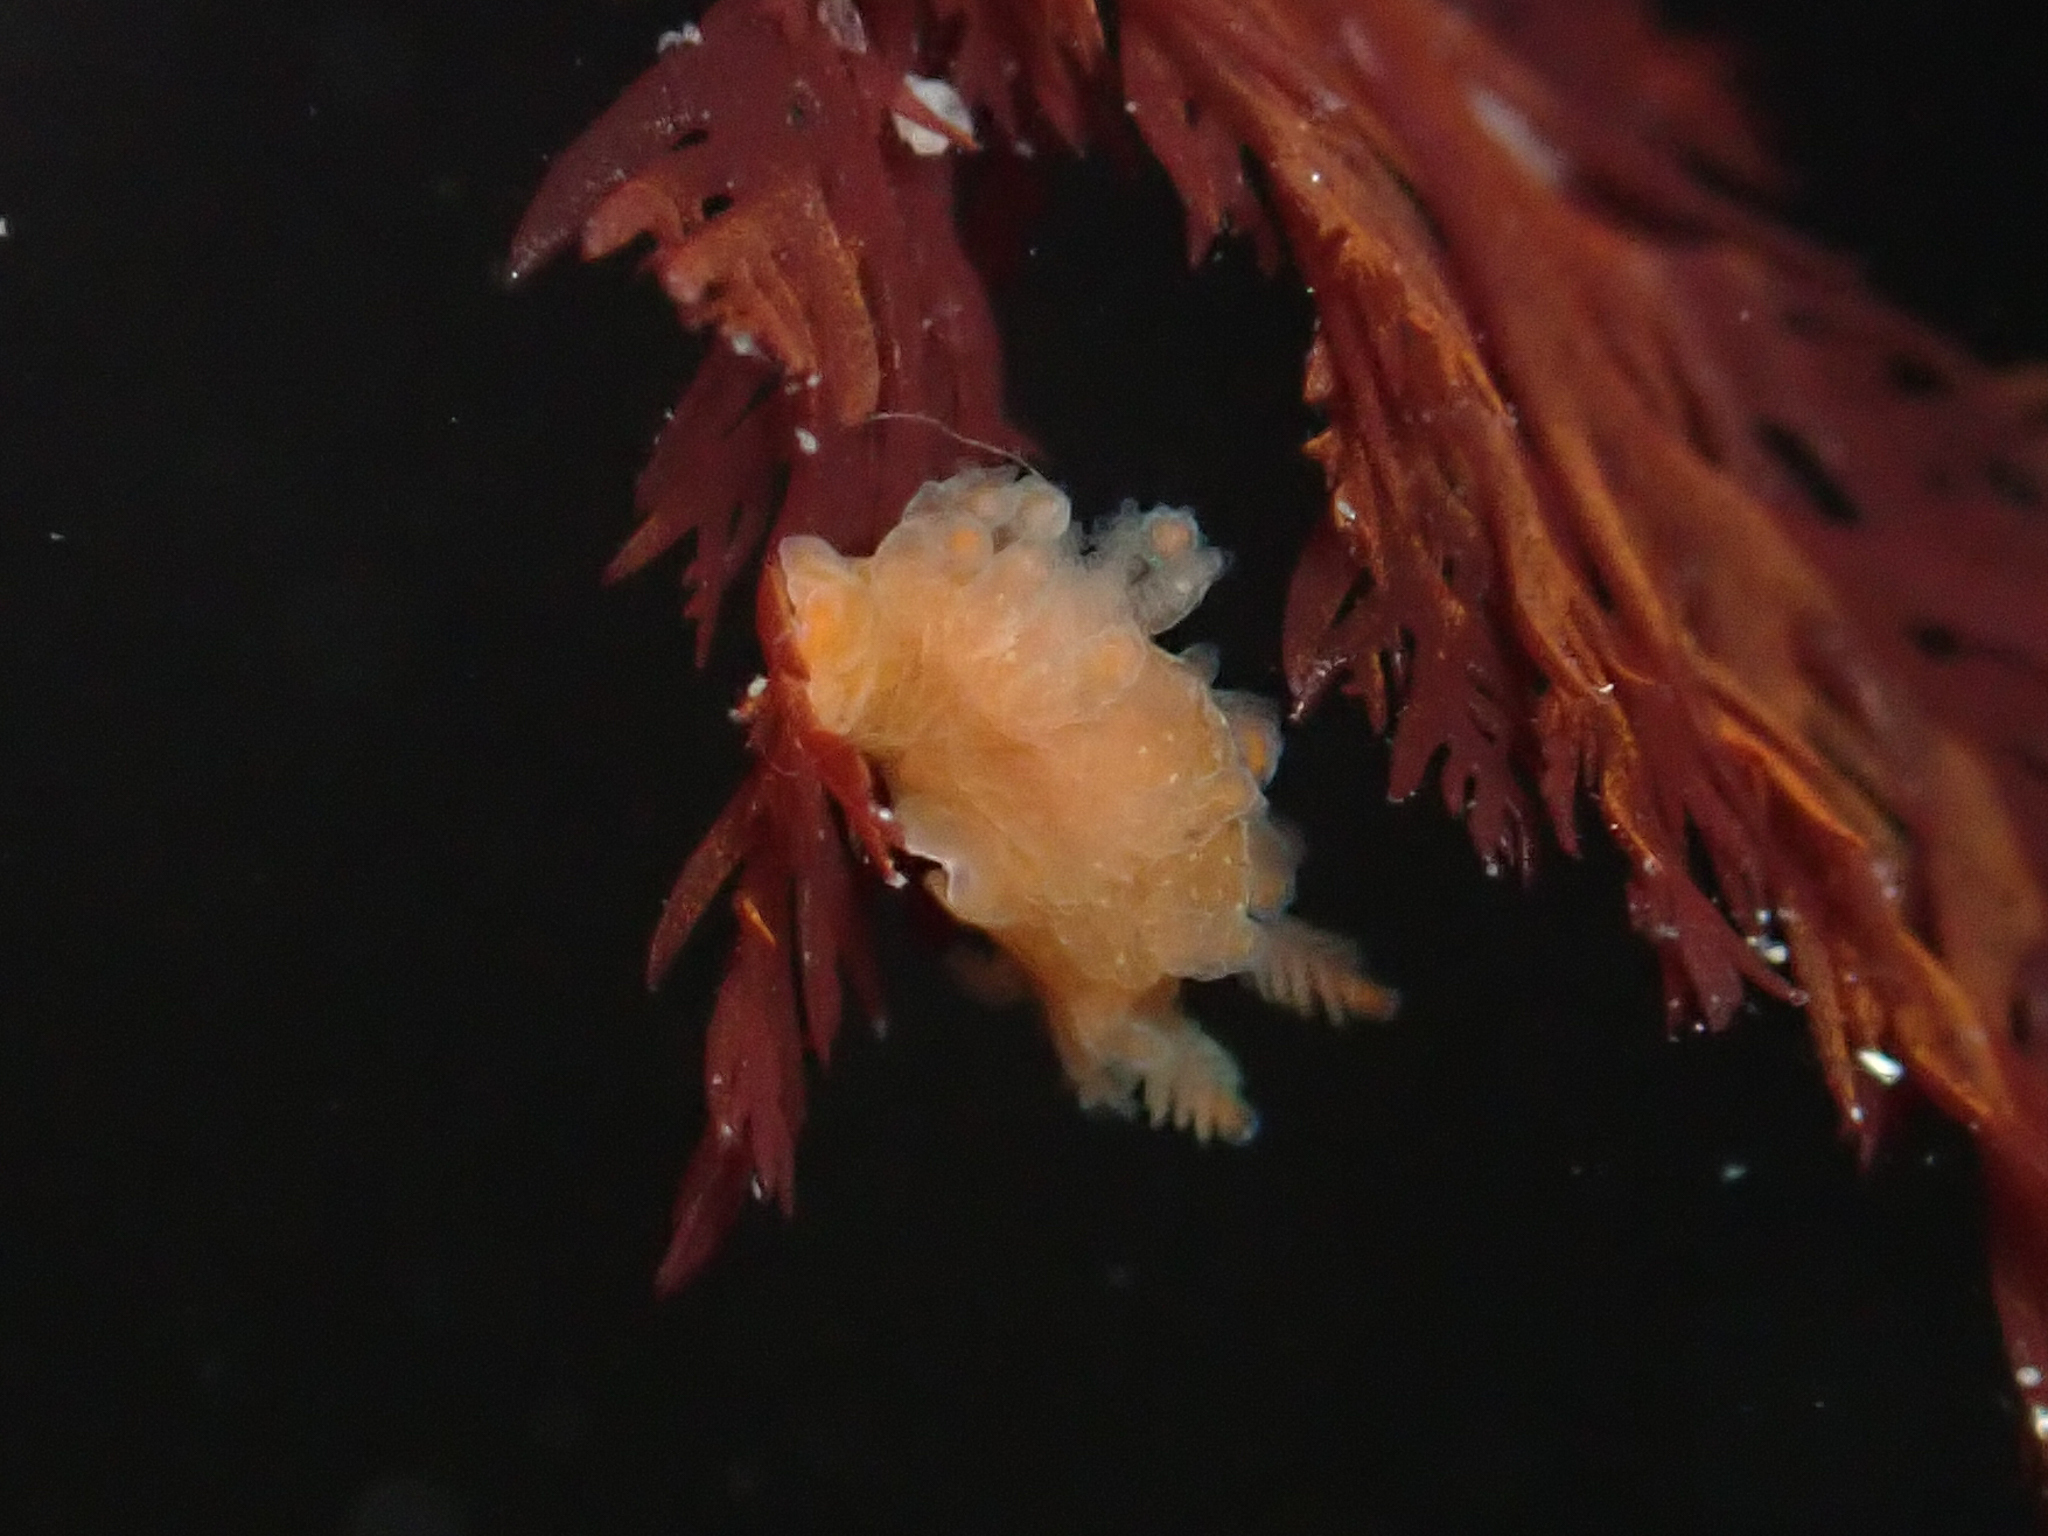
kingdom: Animalia
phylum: Mollusca
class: Gastropoda
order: Nudibranchia
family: Polyceridae
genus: Triopha
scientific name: Triopha maculata
